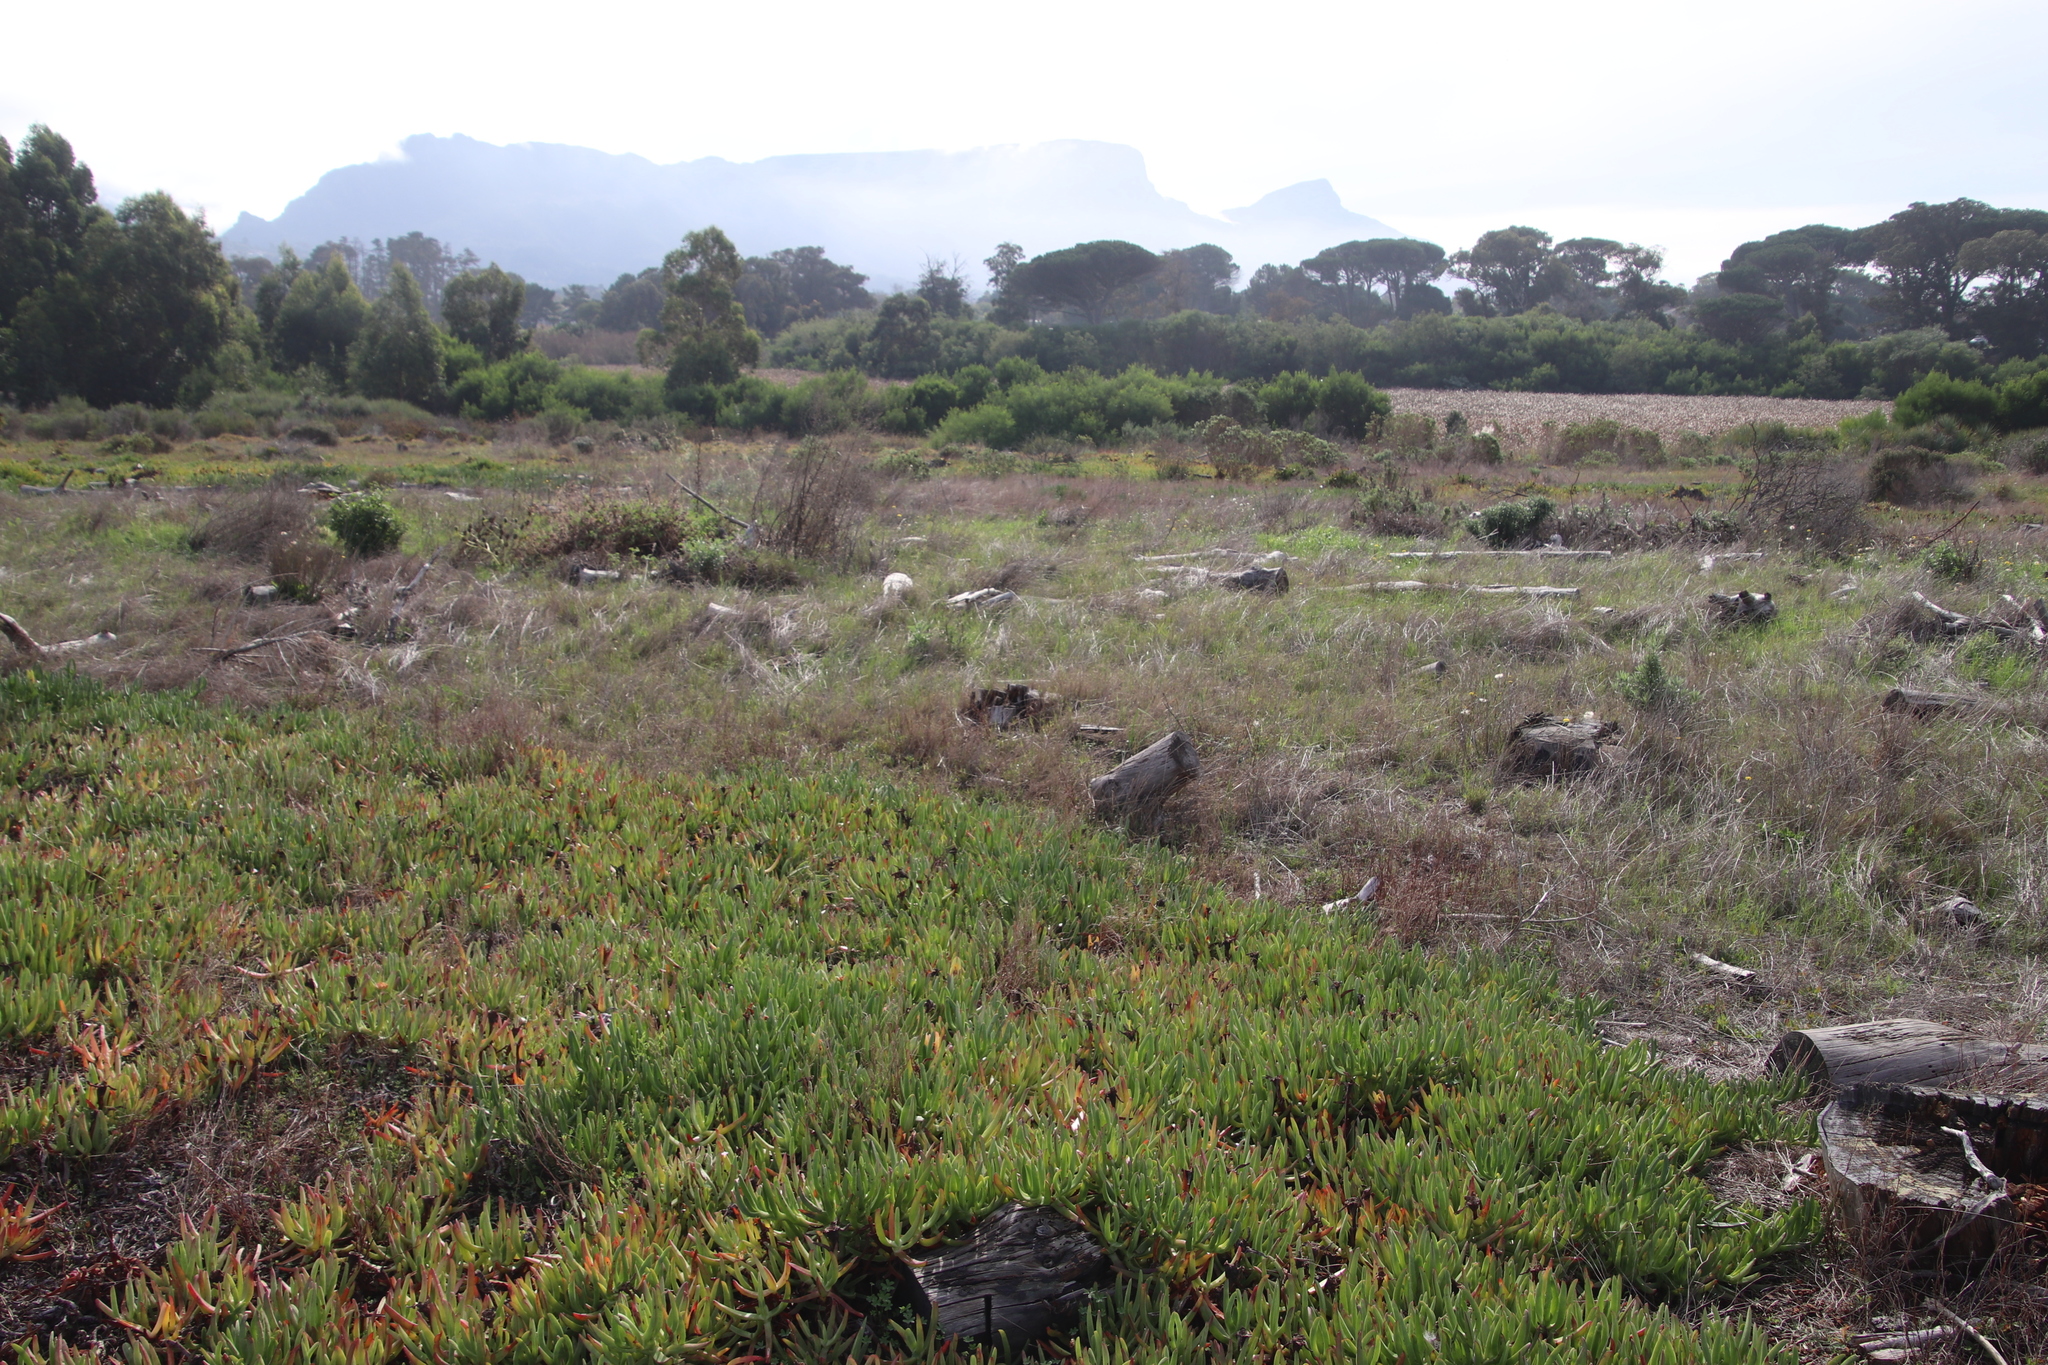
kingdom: Plantae
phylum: Tracheophyta
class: Magnoliopsida
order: Caryophyllales
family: Aizoaceae
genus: Carpobrotus
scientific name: Carpobrotus edulis
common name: Hottentot-fig
